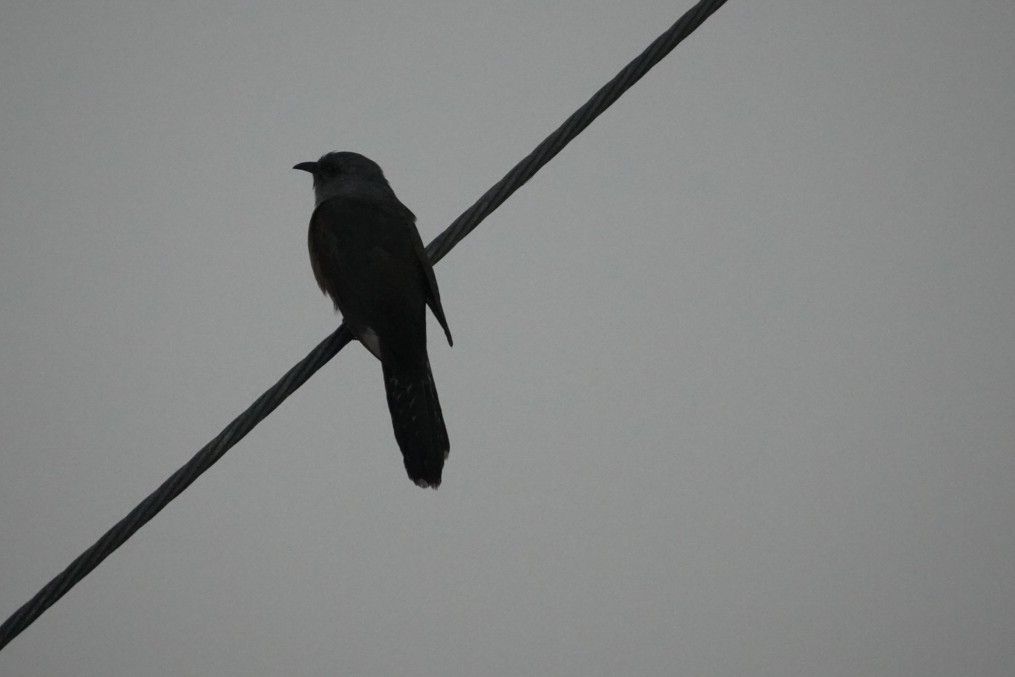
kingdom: Animalia
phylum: Chordata
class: Aves
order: Cuculiformes
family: Cuculidae
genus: Cacomantis
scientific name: Cacomantis merulinus
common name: Plaintive cuckoo
